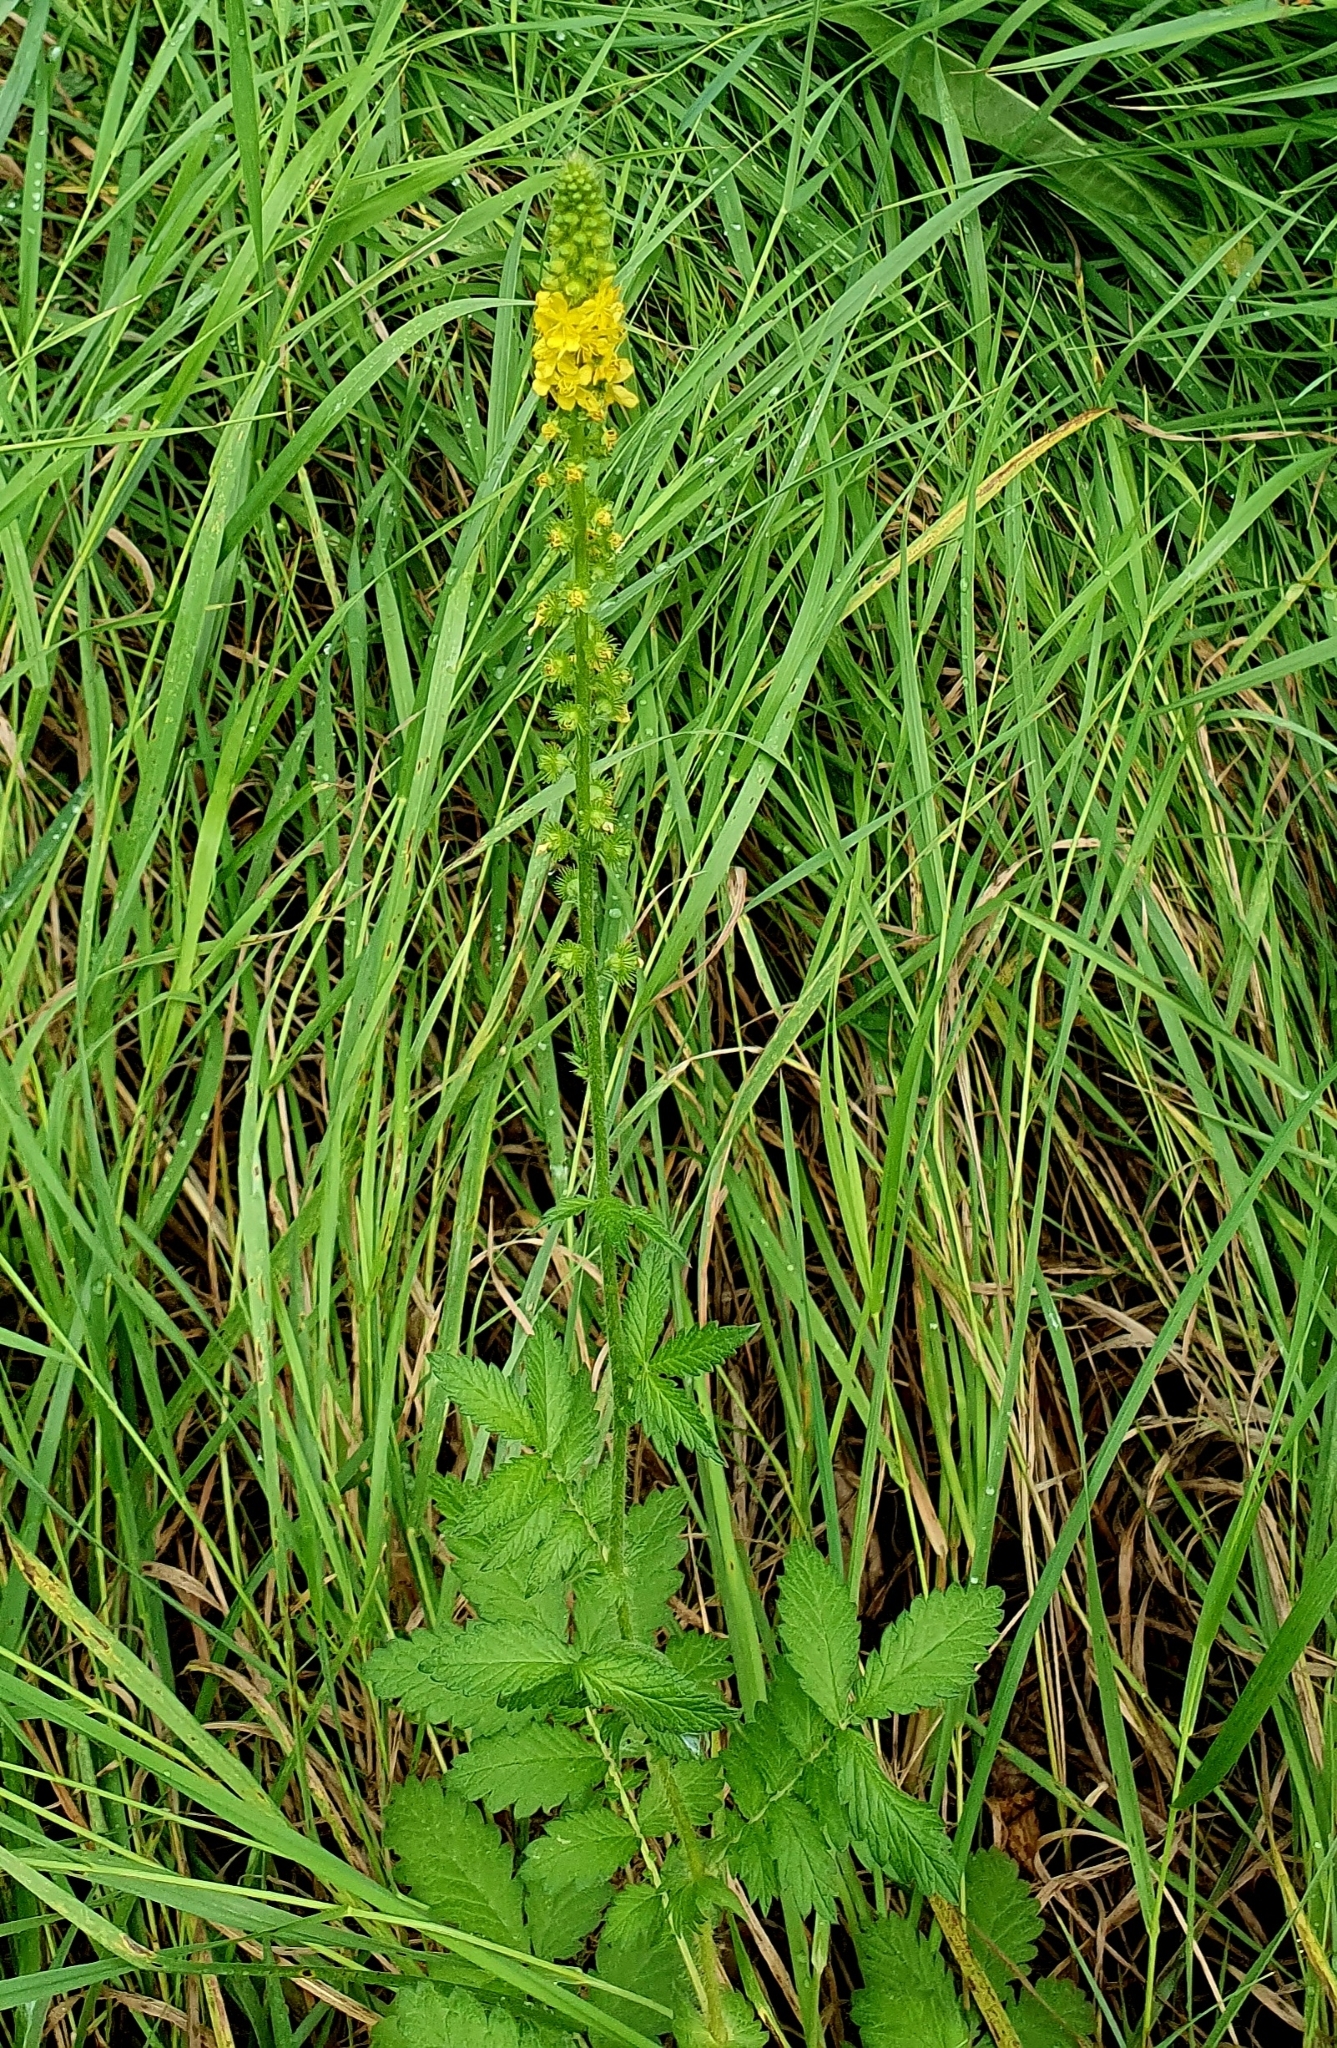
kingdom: Plantae
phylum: Tracheophyta
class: Magnoliopsida
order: Rosales
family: Rosaceae
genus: Agrimonia
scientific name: Agrimonia eupatoria
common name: Agrimony
